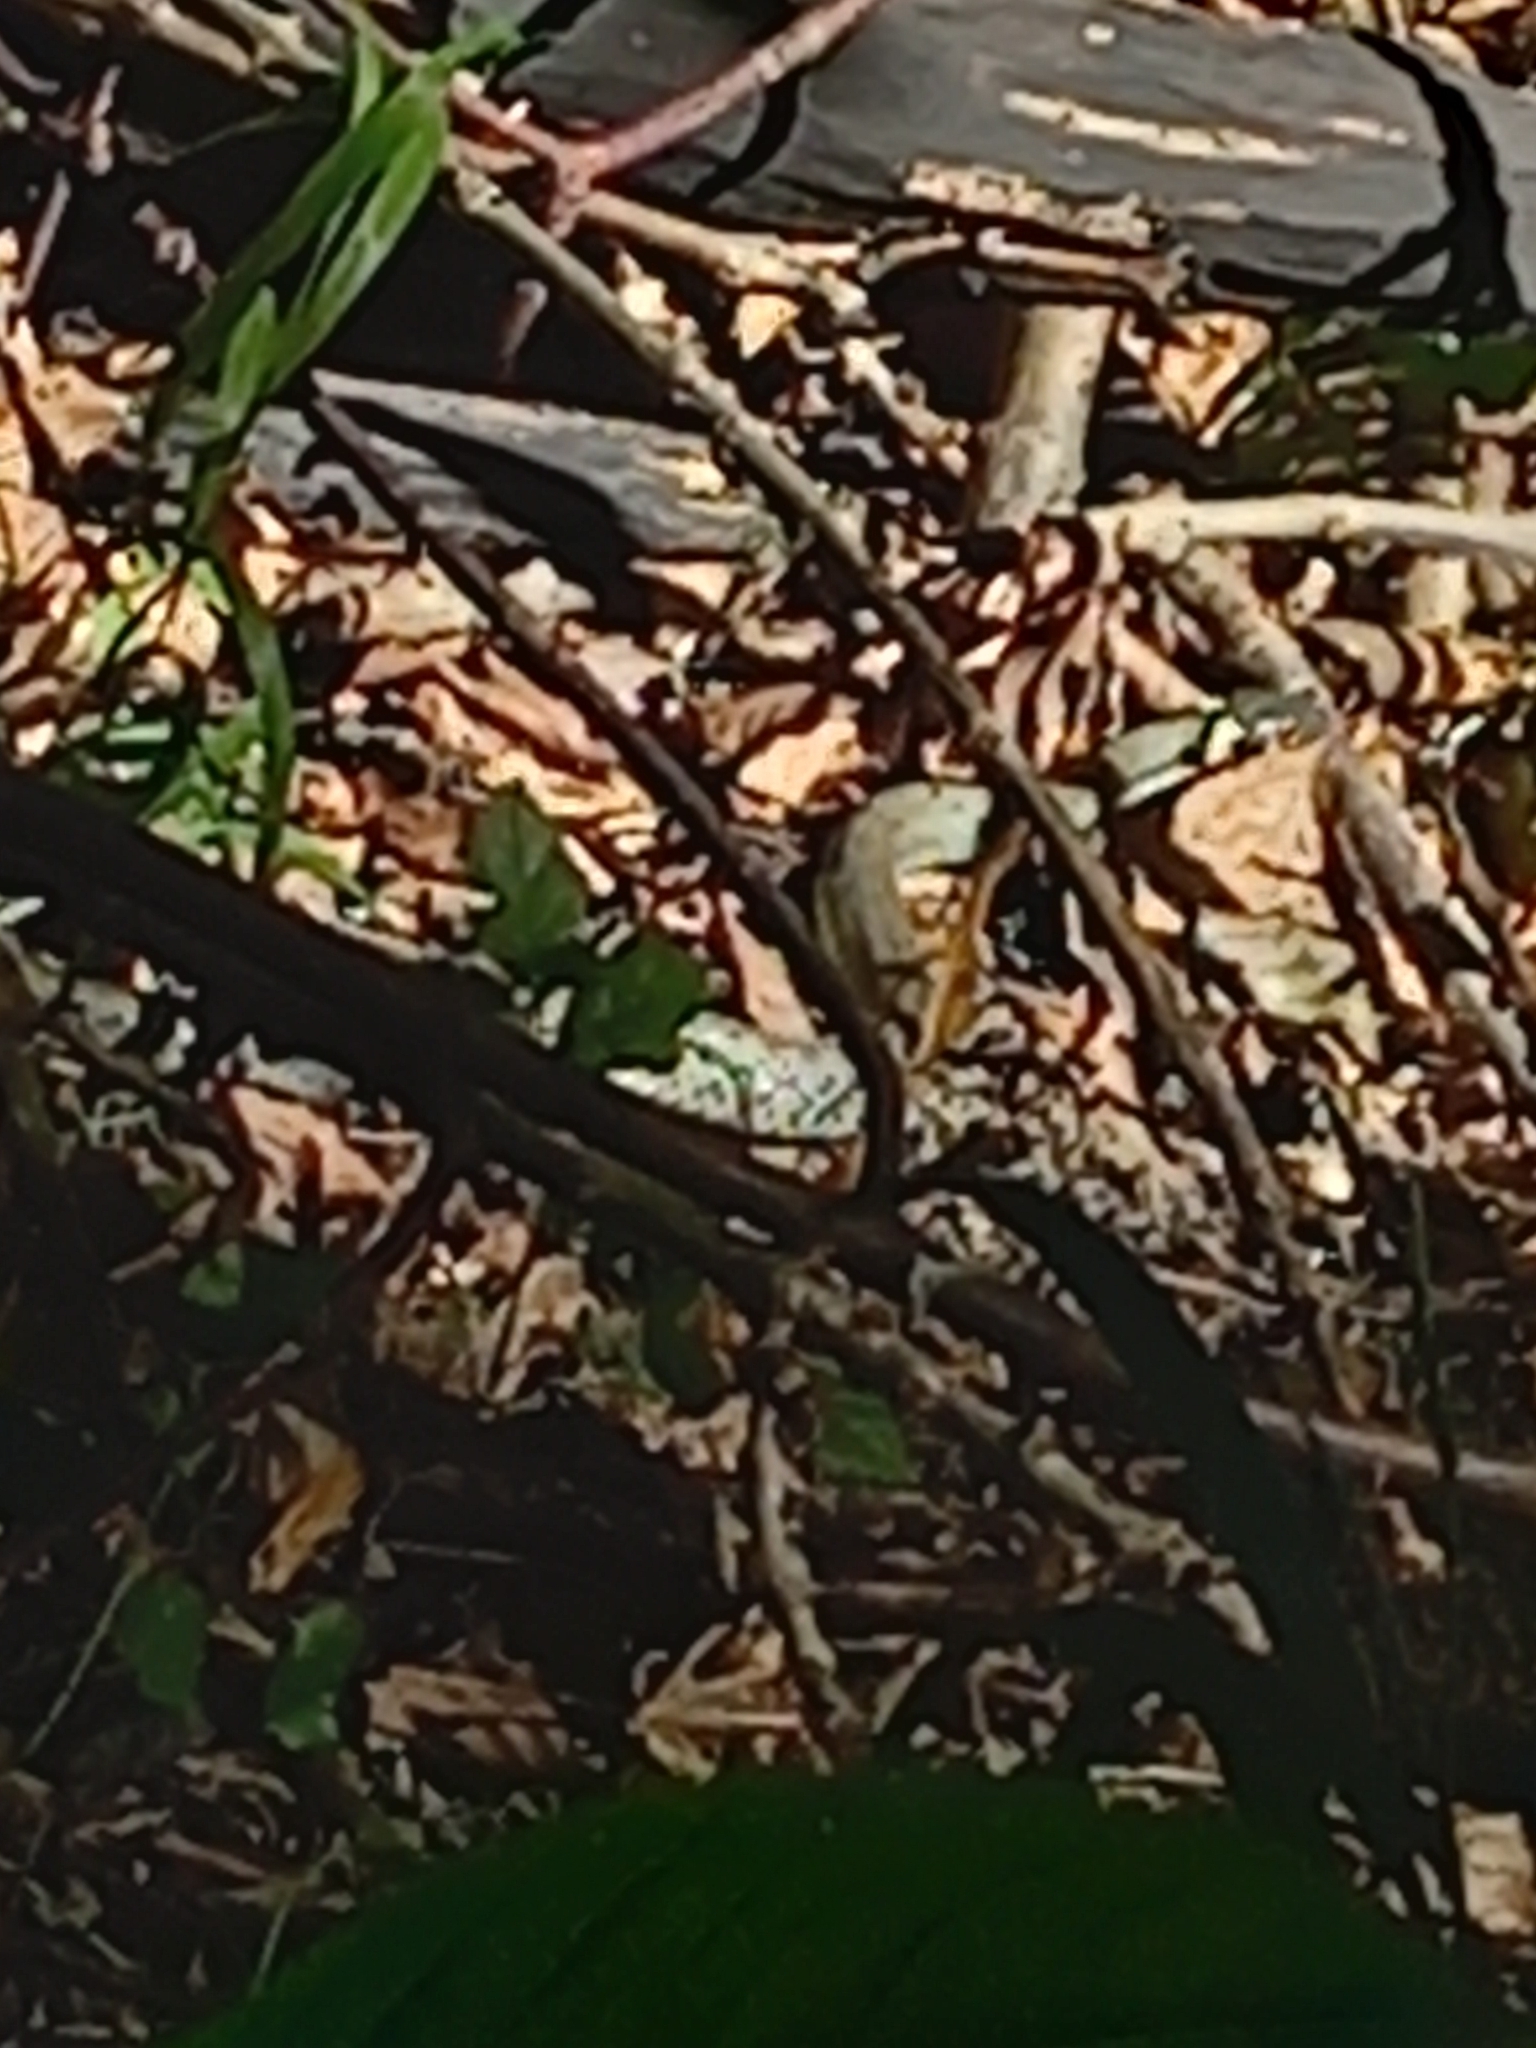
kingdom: Animalia
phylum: Chordata
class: Squamata
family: Colubridae
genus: Natrix
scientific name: Natrix natrix
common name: Grass snake
